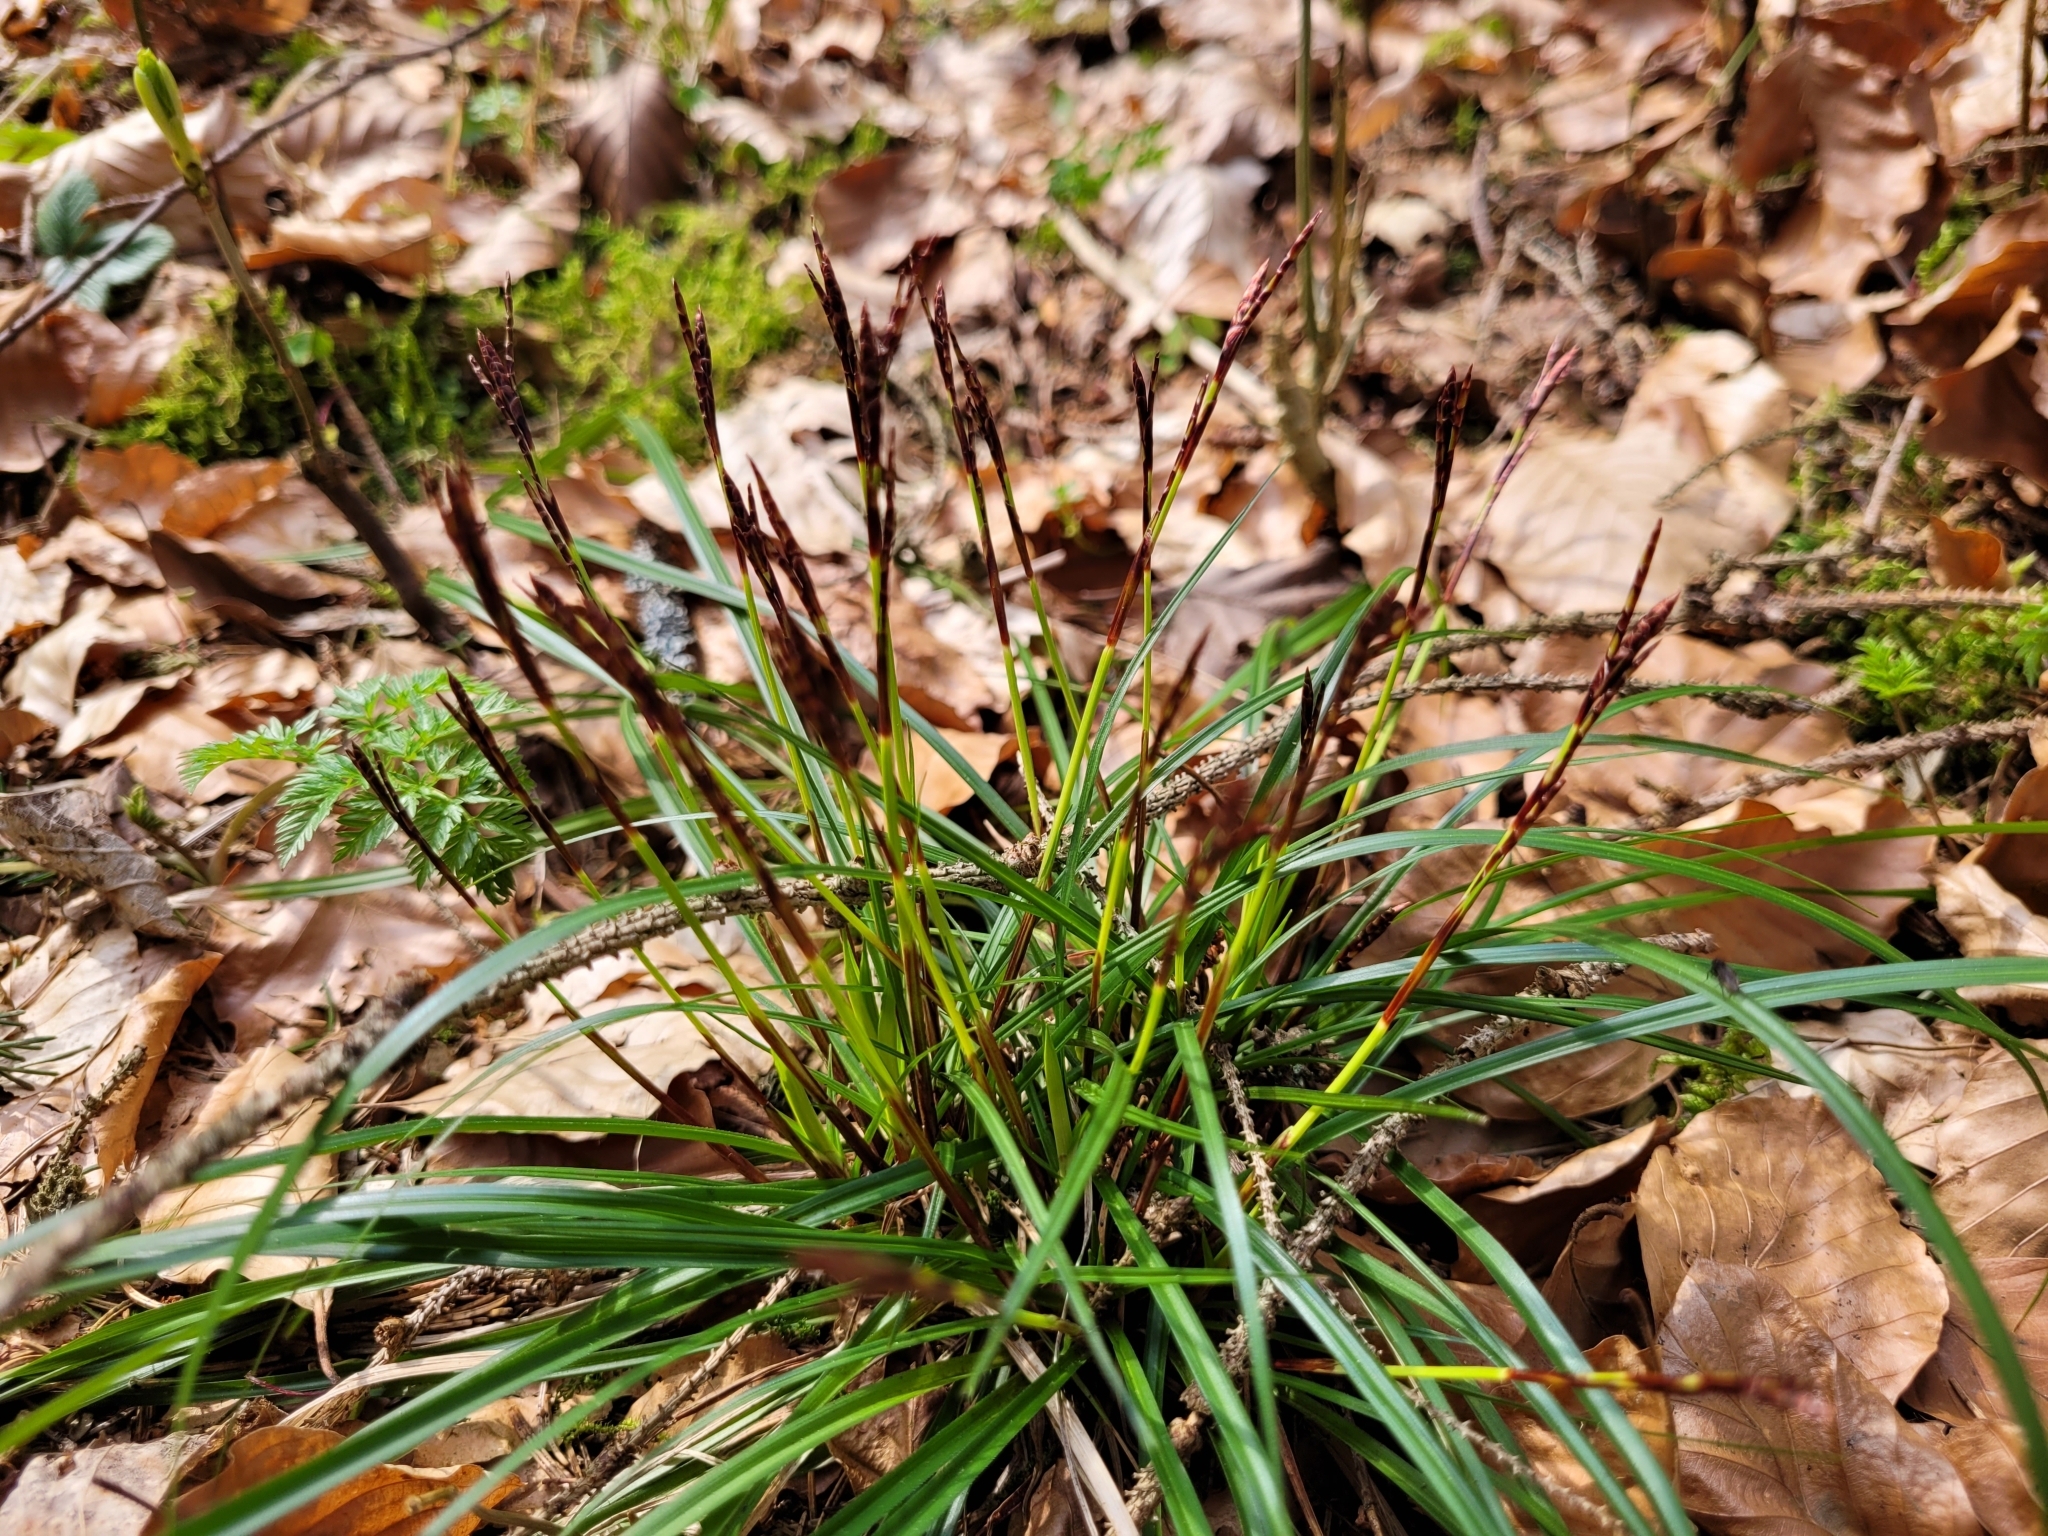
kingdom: Plantae
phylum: Tracheophyta
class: Liliopsida
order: Poales
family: Cyperaceae
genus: Carex
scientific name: Carex digitata
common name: Fingered sedge
